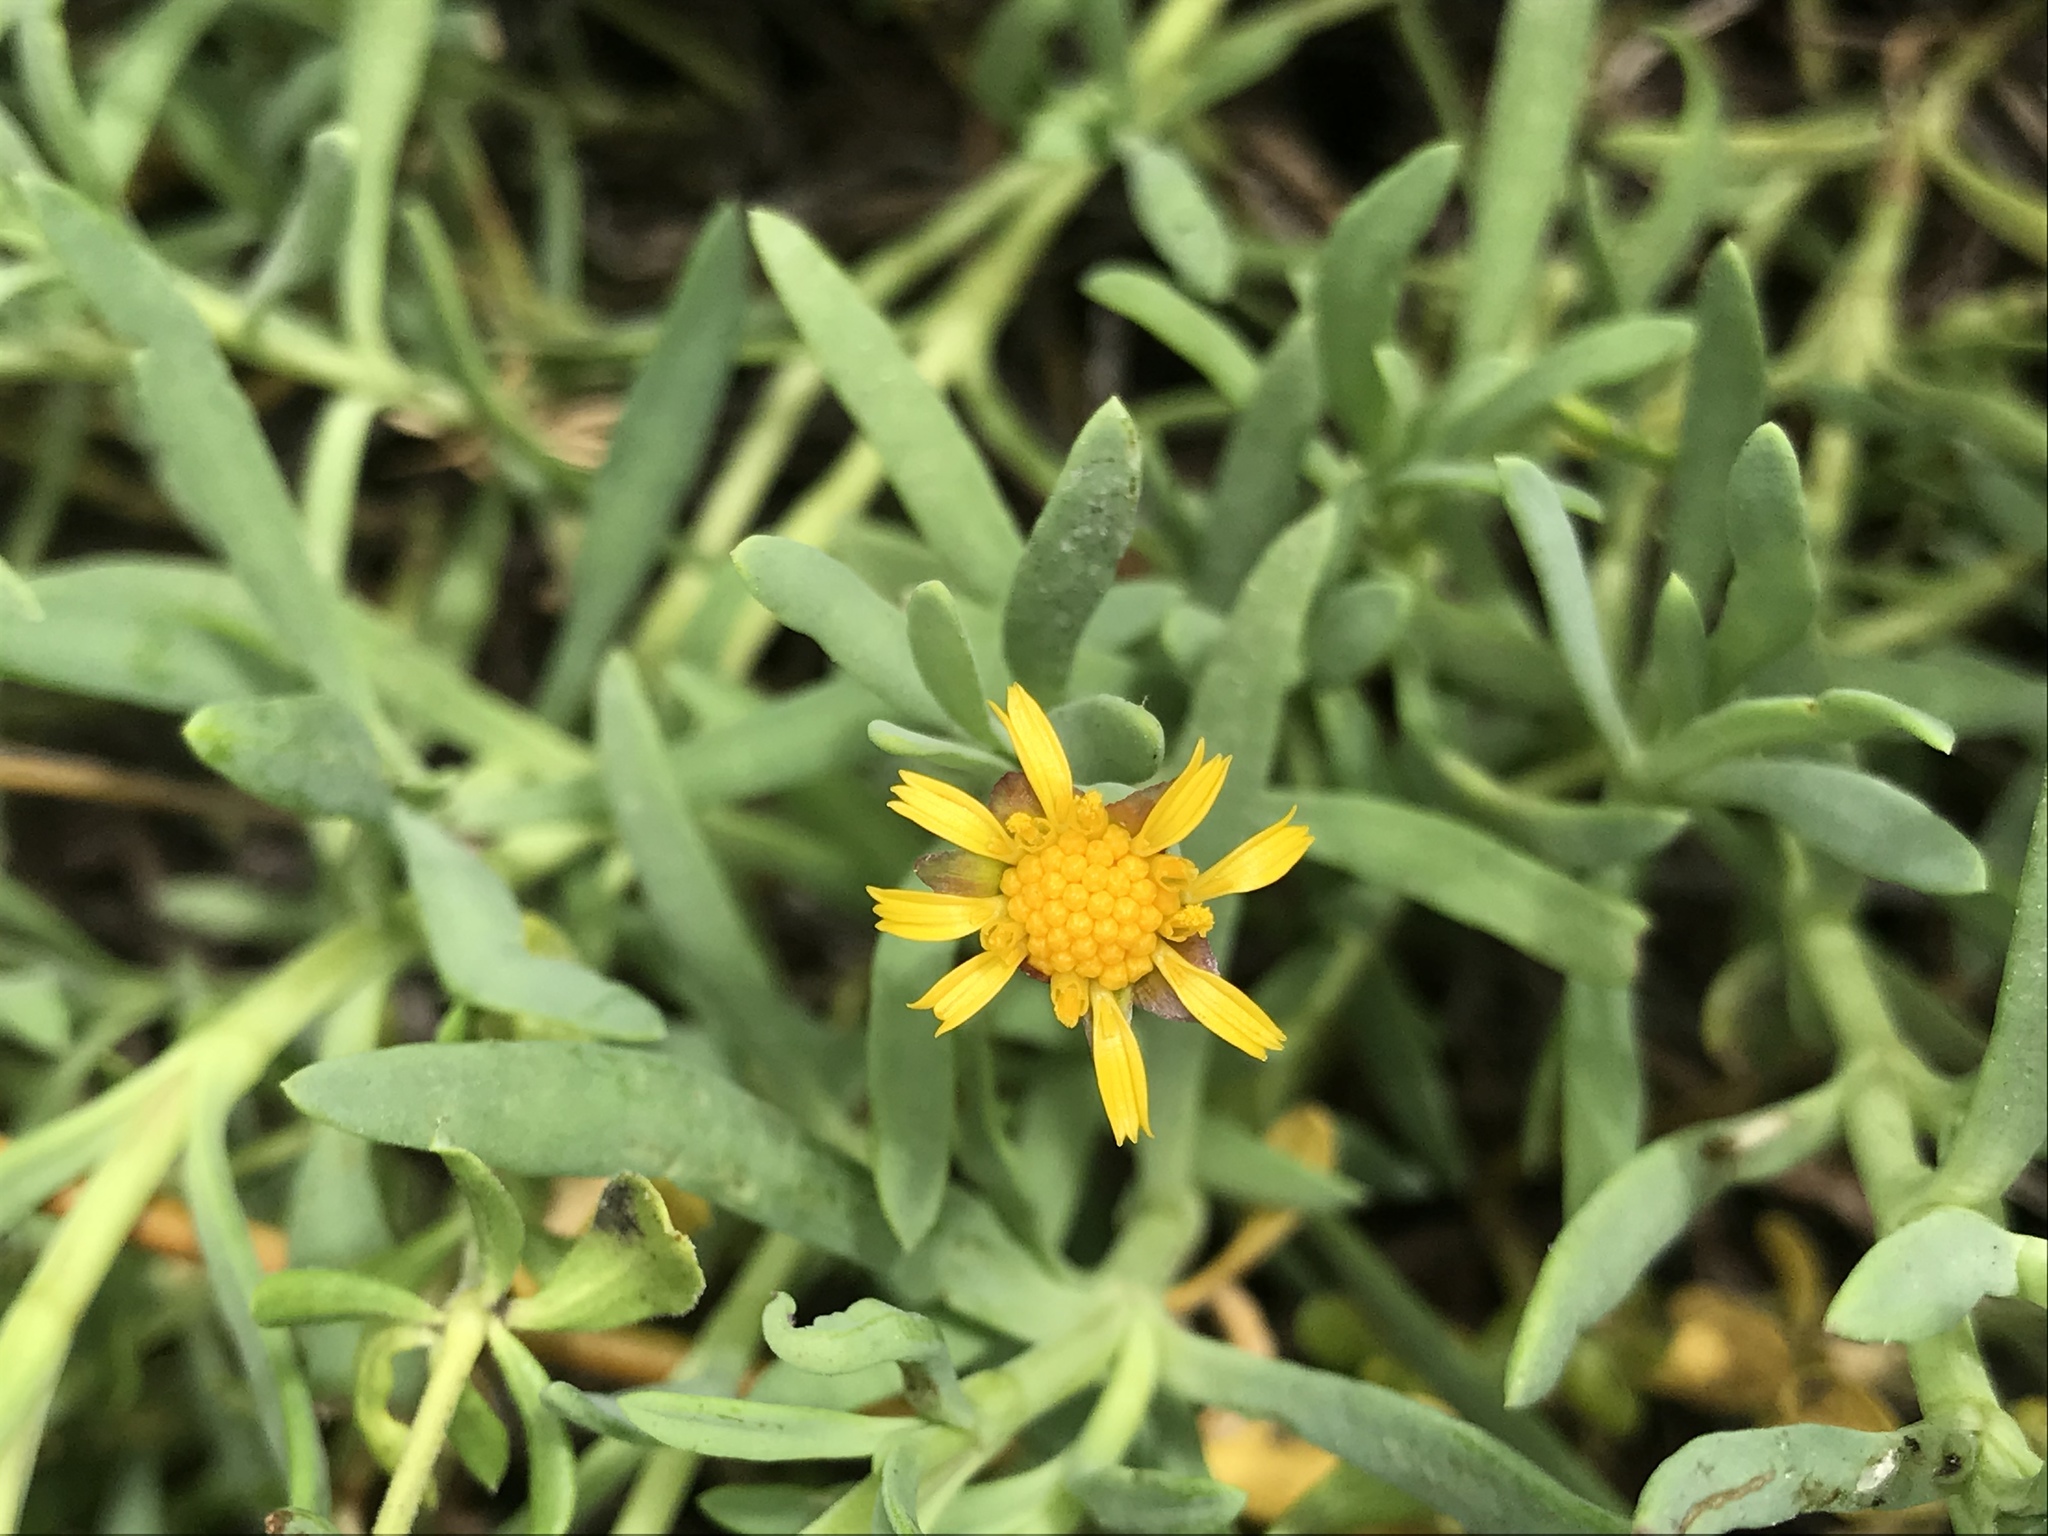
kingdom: Plantae
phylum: Tracheophyta
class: Magnoliopsida
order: Asterales
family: Asteraceae
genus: Jaumea
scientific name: Jaumea carnosa
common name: Fleshy jaumea
